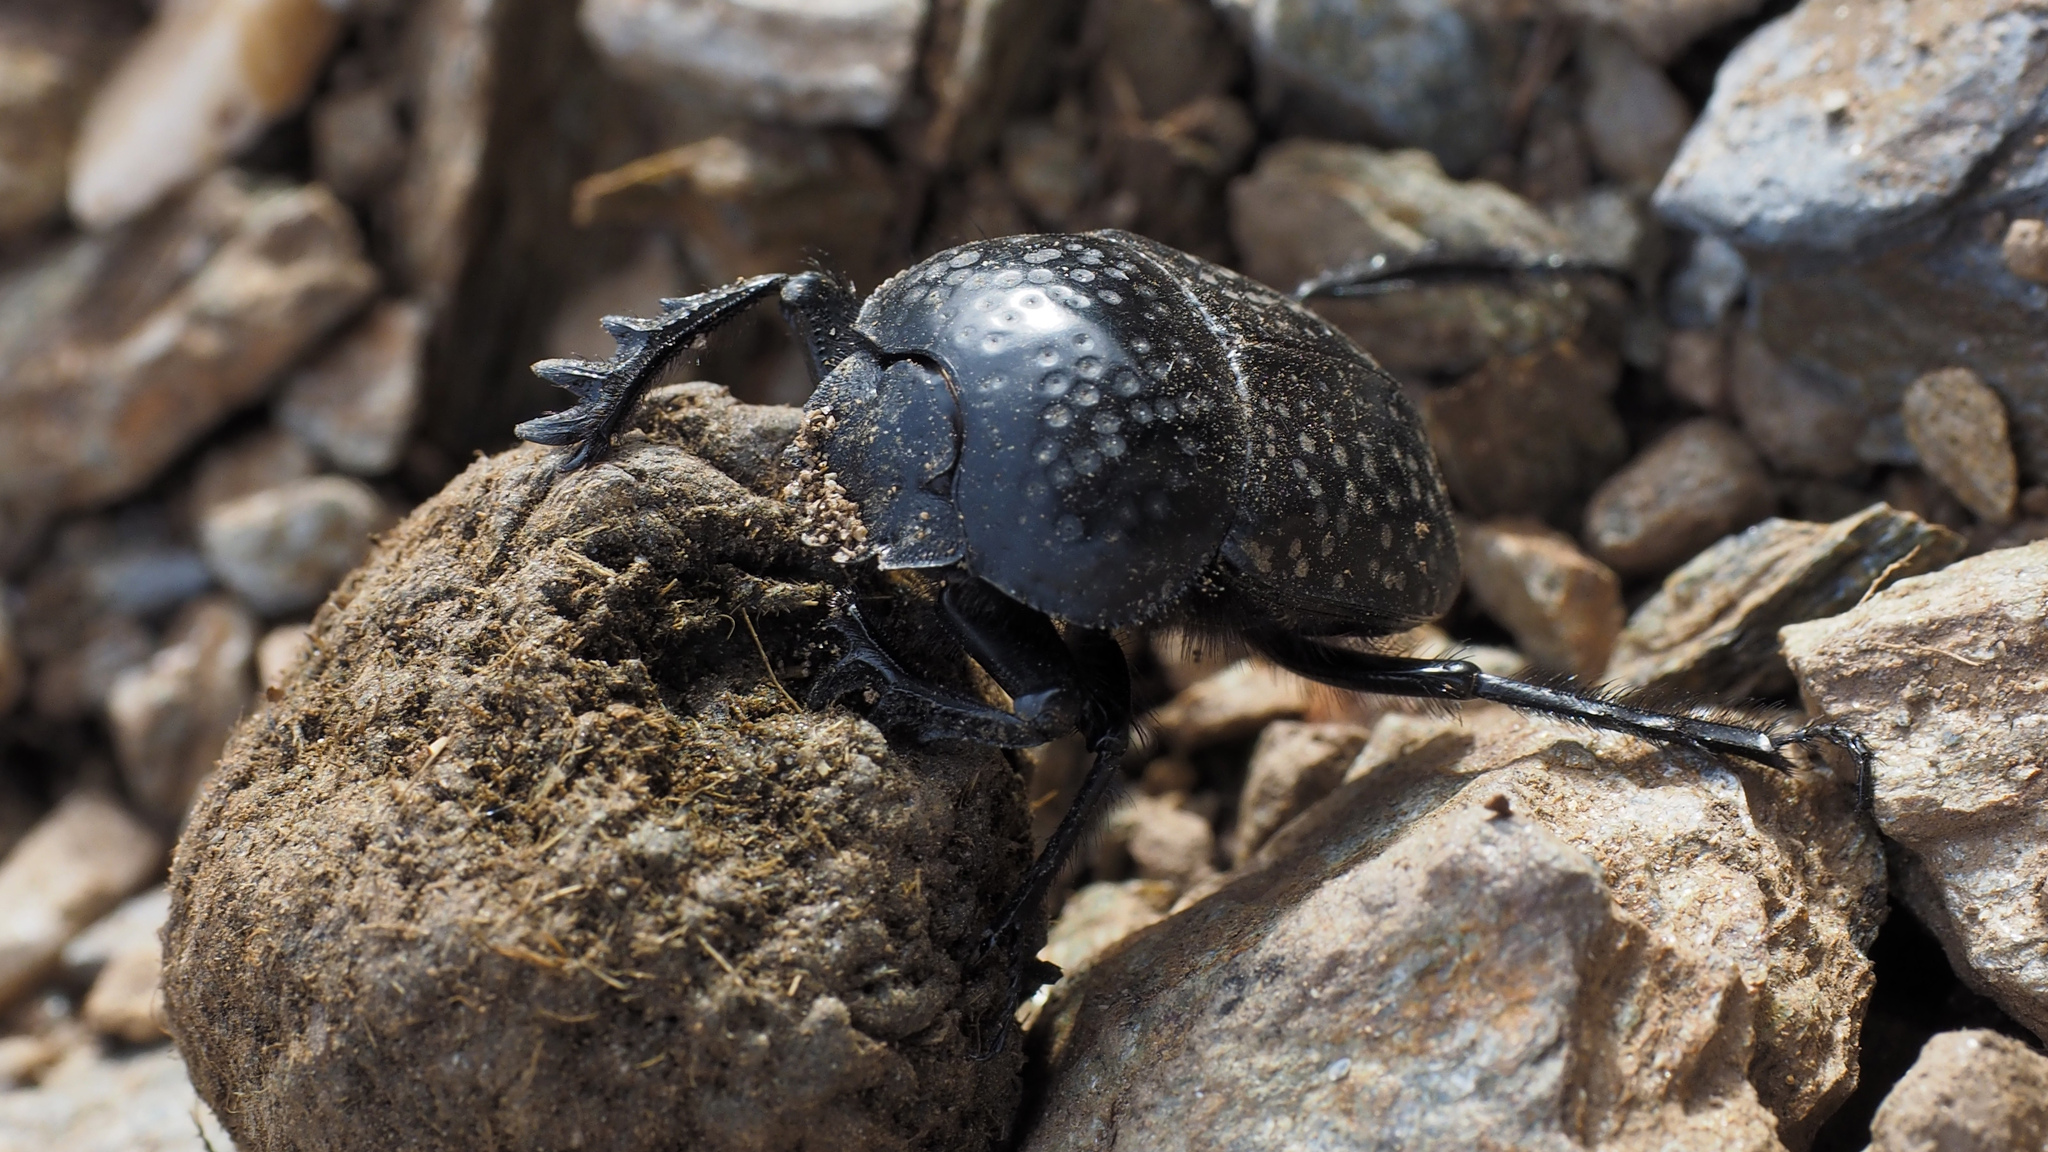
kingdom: Animalia
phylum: Arthropoda
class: Insecta
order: Coleoptera
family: Scarabaeidae
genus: Ateuchetus
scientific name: Ateuchetus
